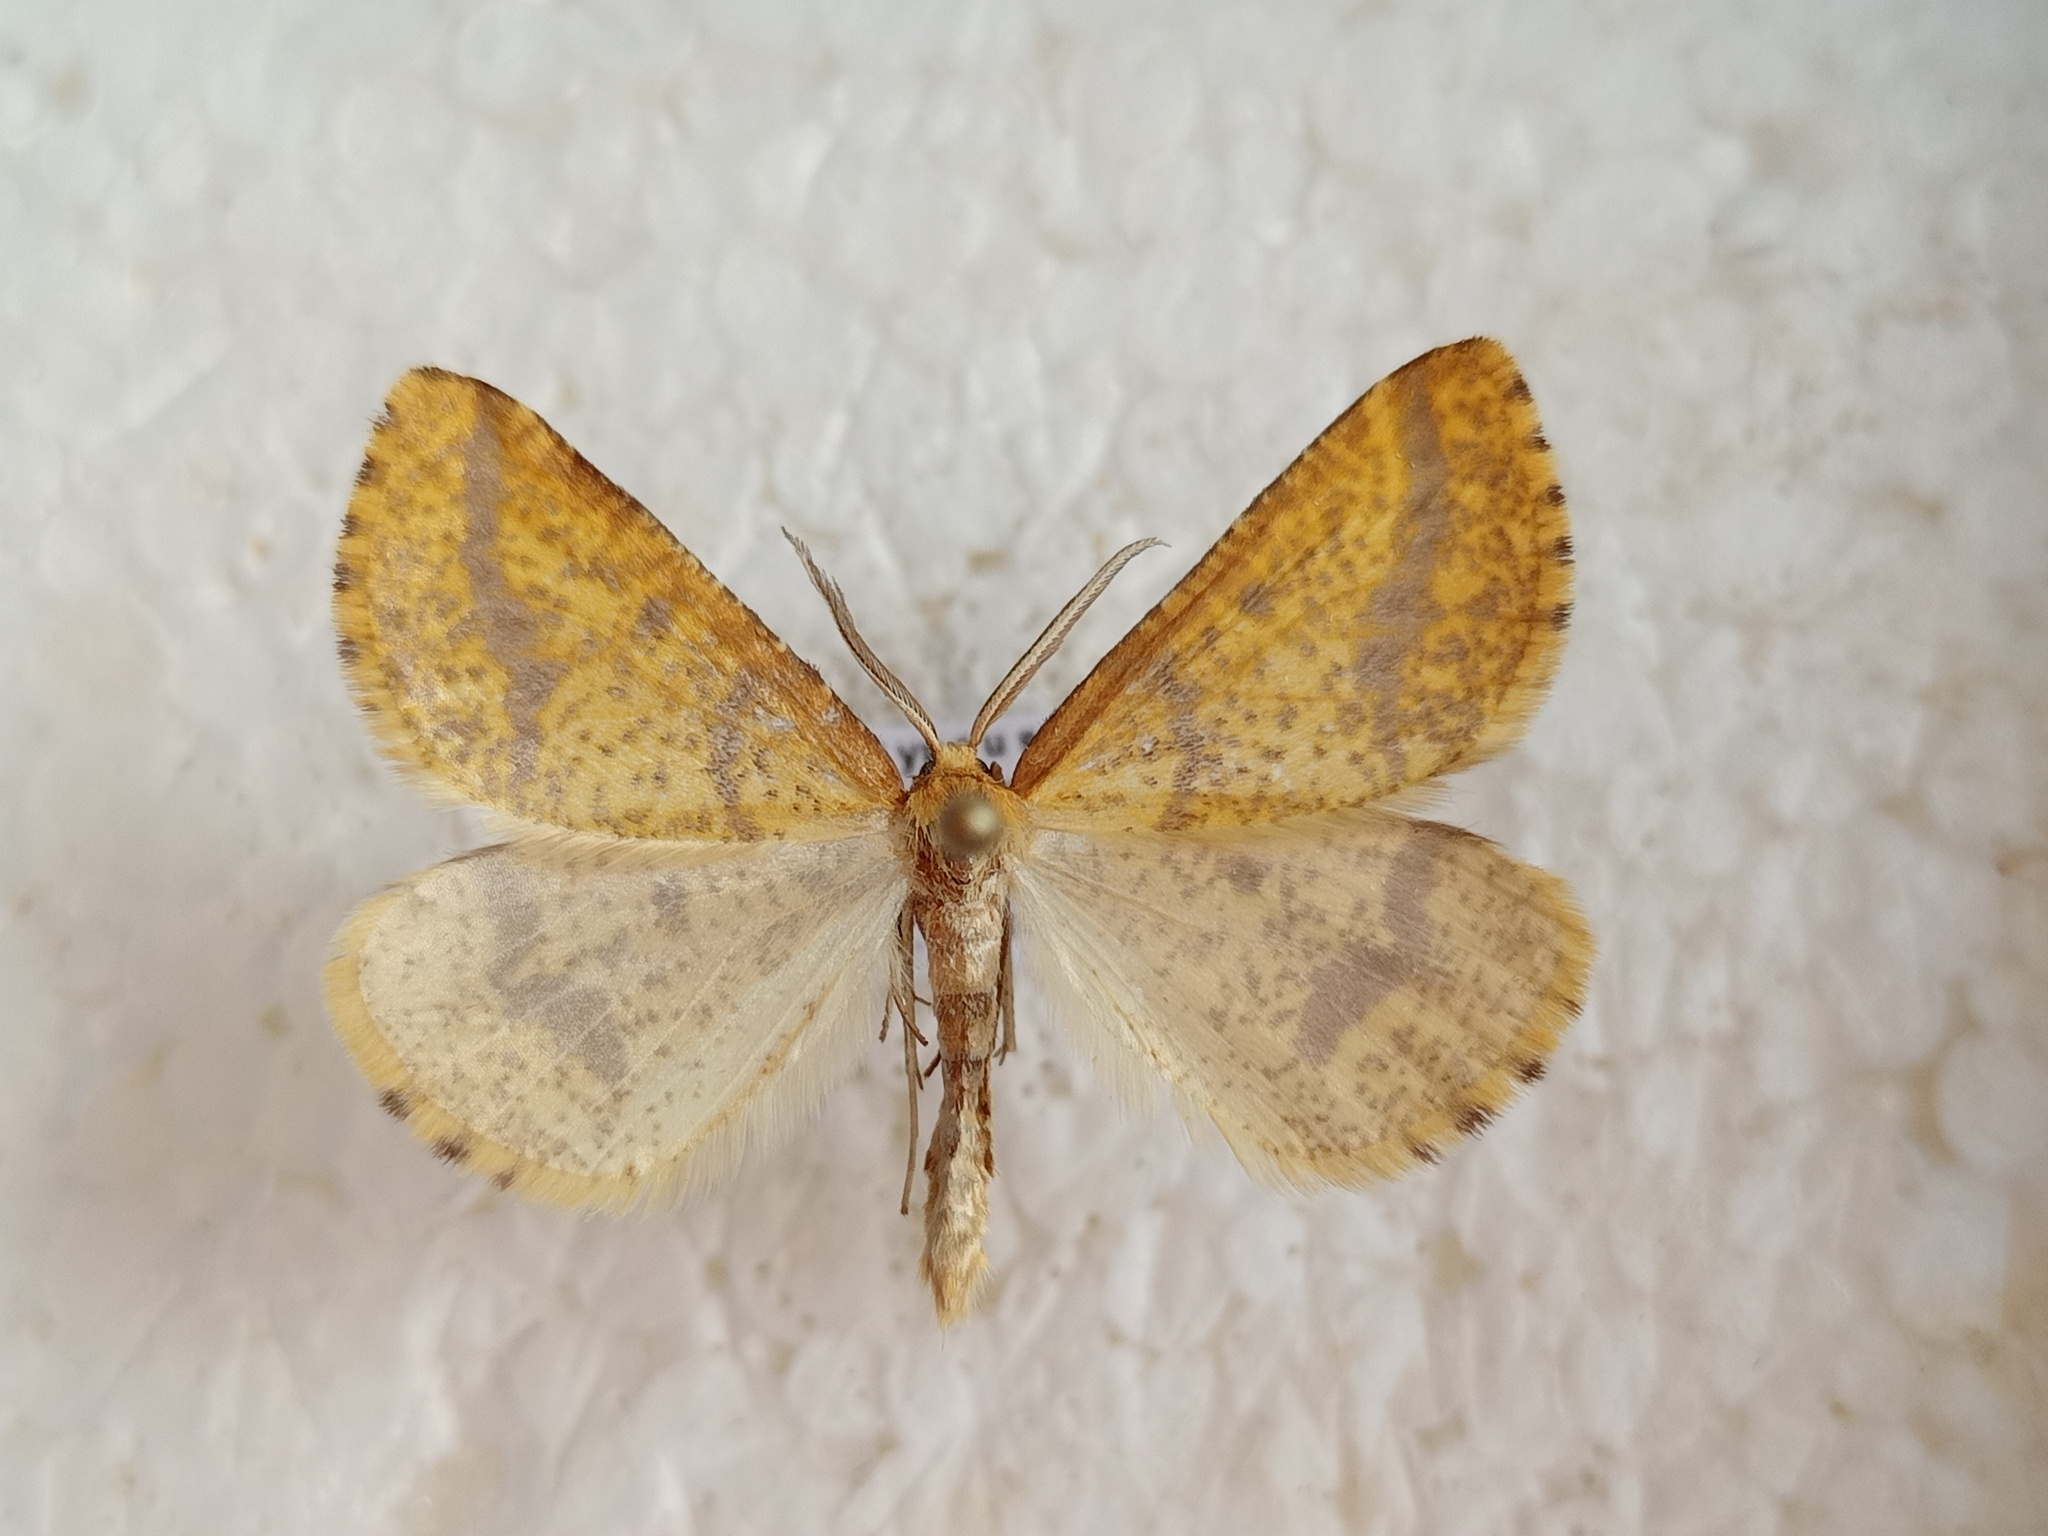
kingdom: Animalia
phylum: Arthropoda
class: Insecta
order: Lepidoptera
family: Geometridae
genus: Aspitates
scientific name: Aspitates ochrearia
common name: Yellow belle
